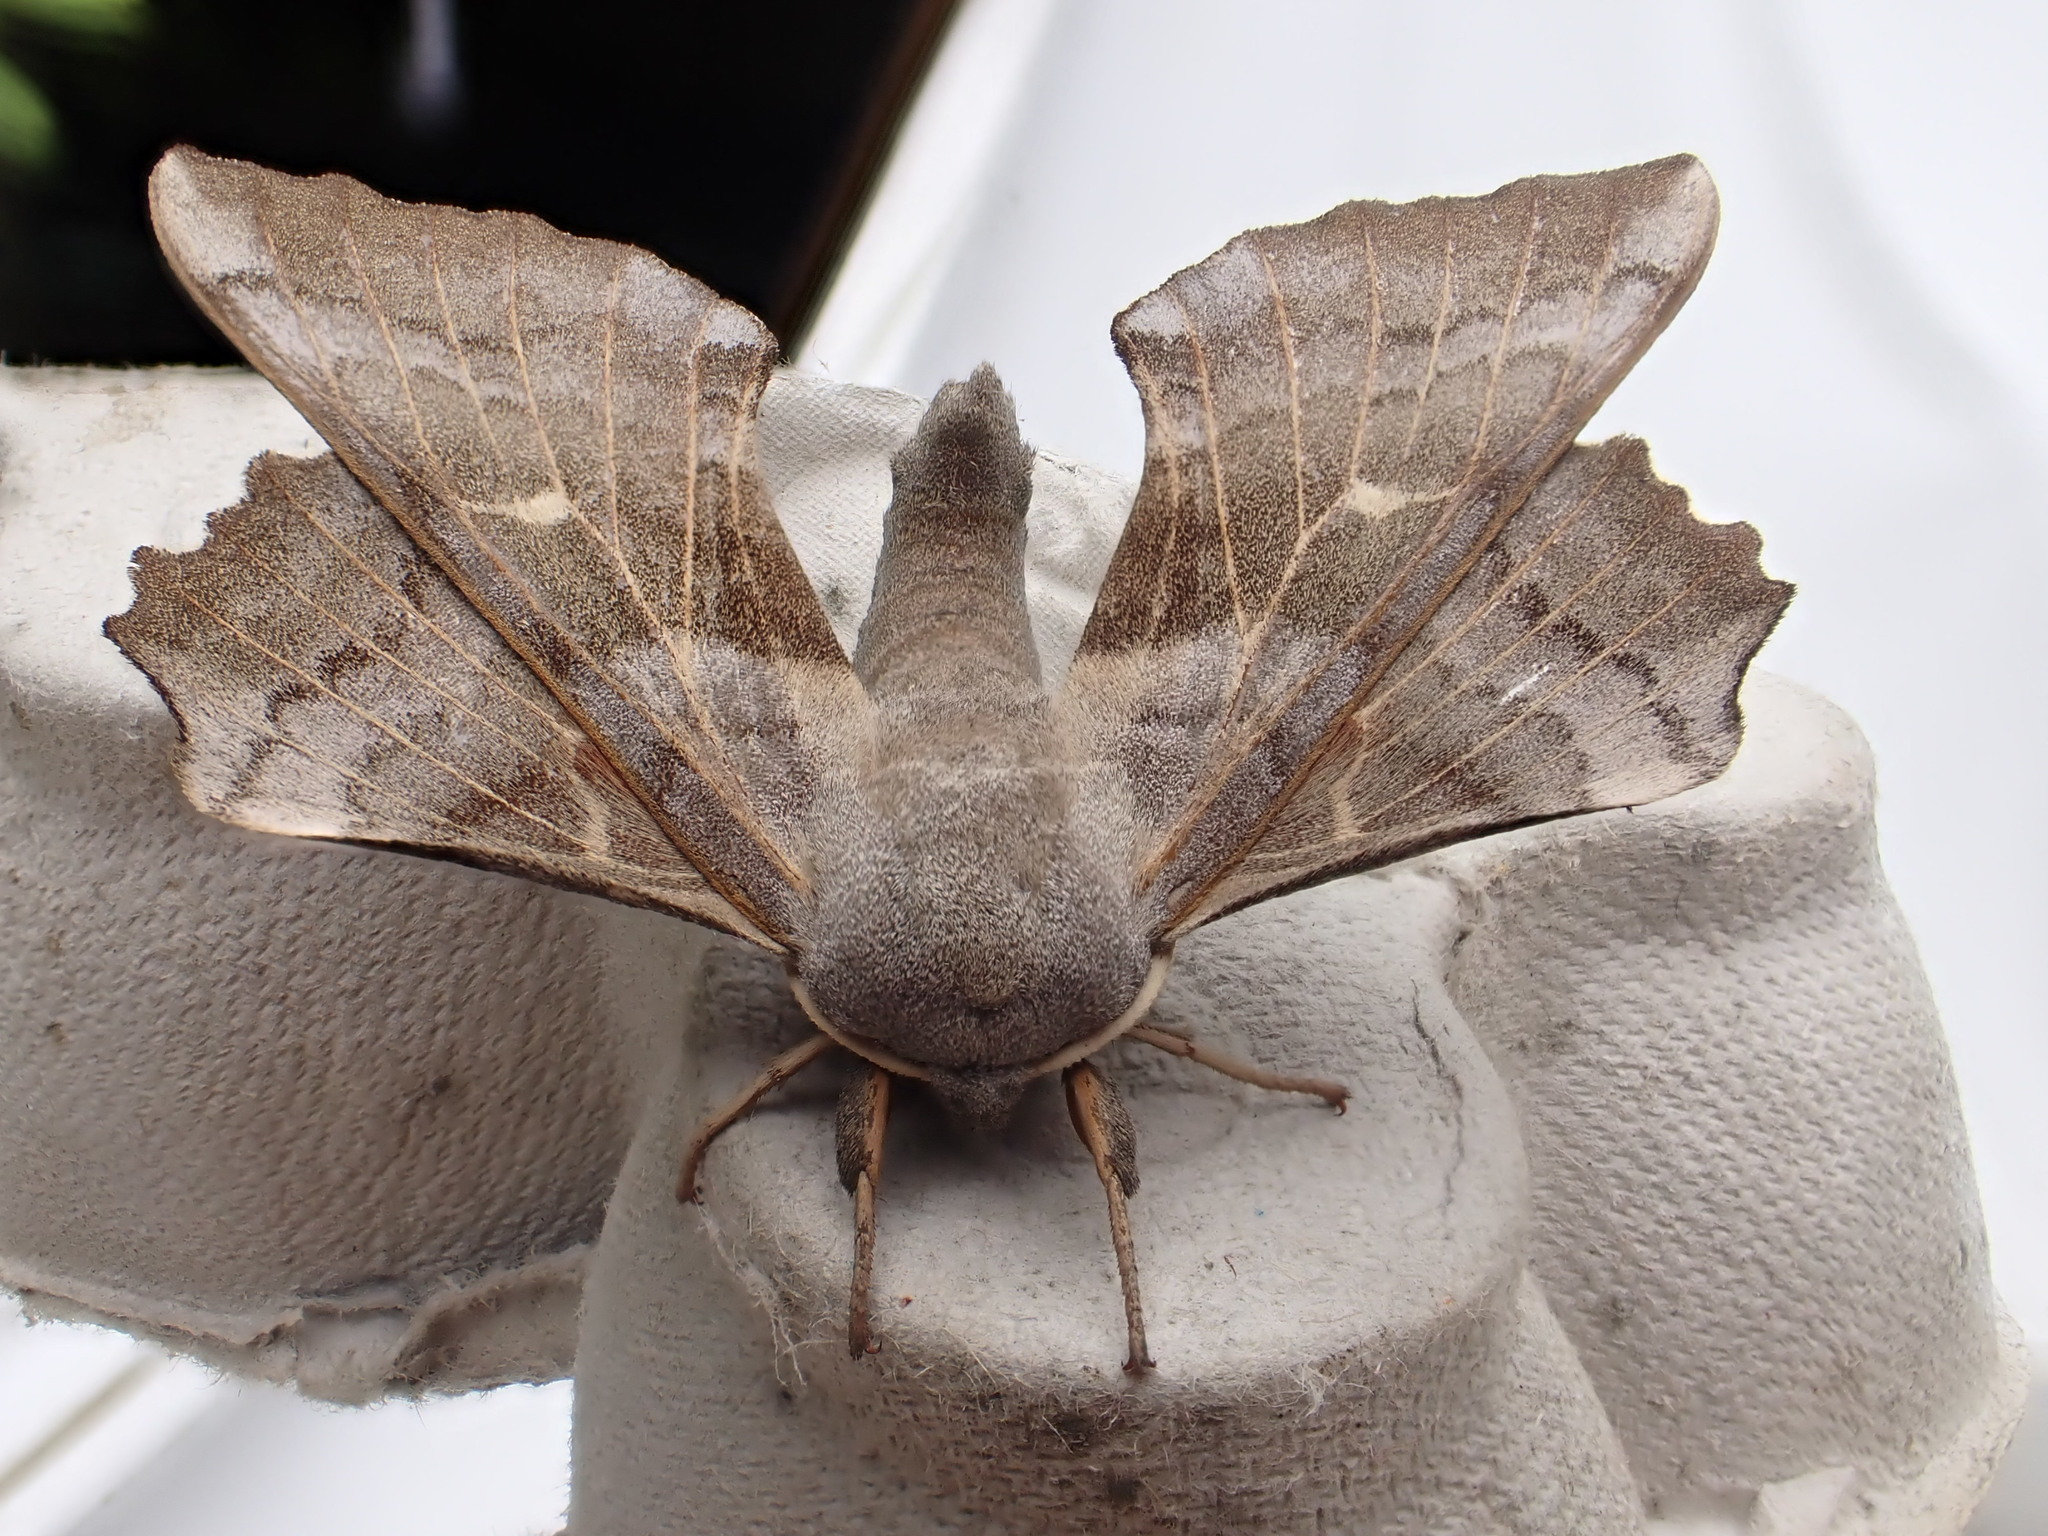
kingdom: Animalia
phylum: Arthropoda
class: Insecta
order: Lepidoptera
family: Sphingidae
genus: Laothoe
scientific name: Laothoe populi
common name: Poplar hawk-moth
